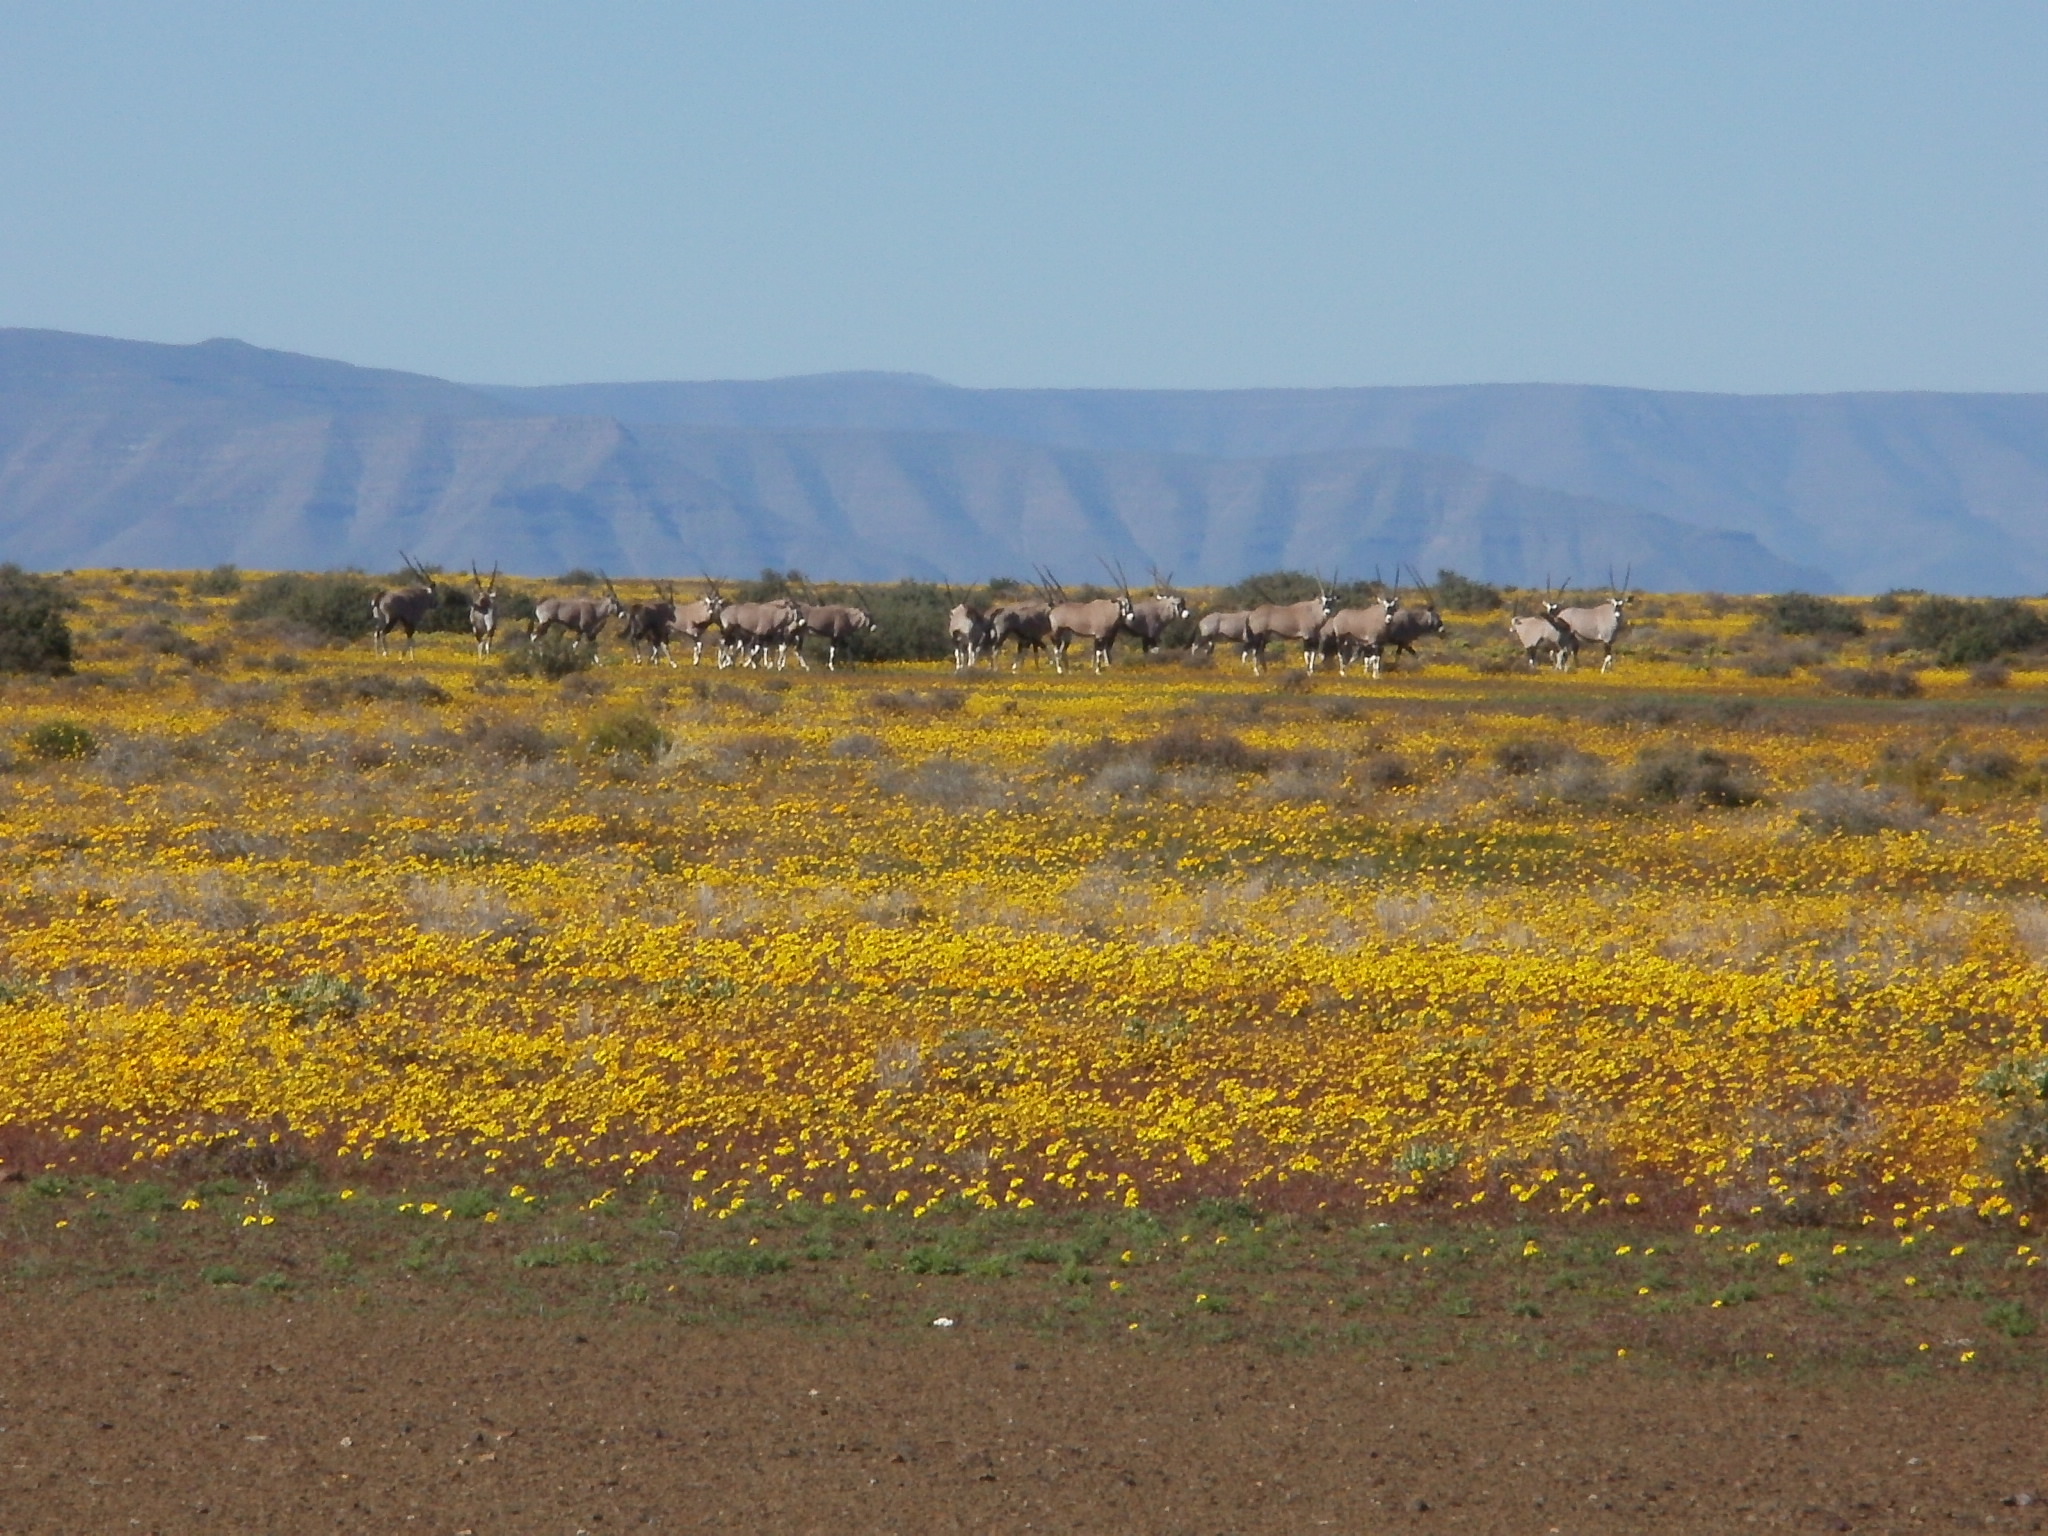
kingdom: Animalia
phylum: Chordata
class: Mammalia
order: Artiodactyla
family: Bovidae
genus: Oryx
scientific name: Oryx gazella
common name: Gemsbok
